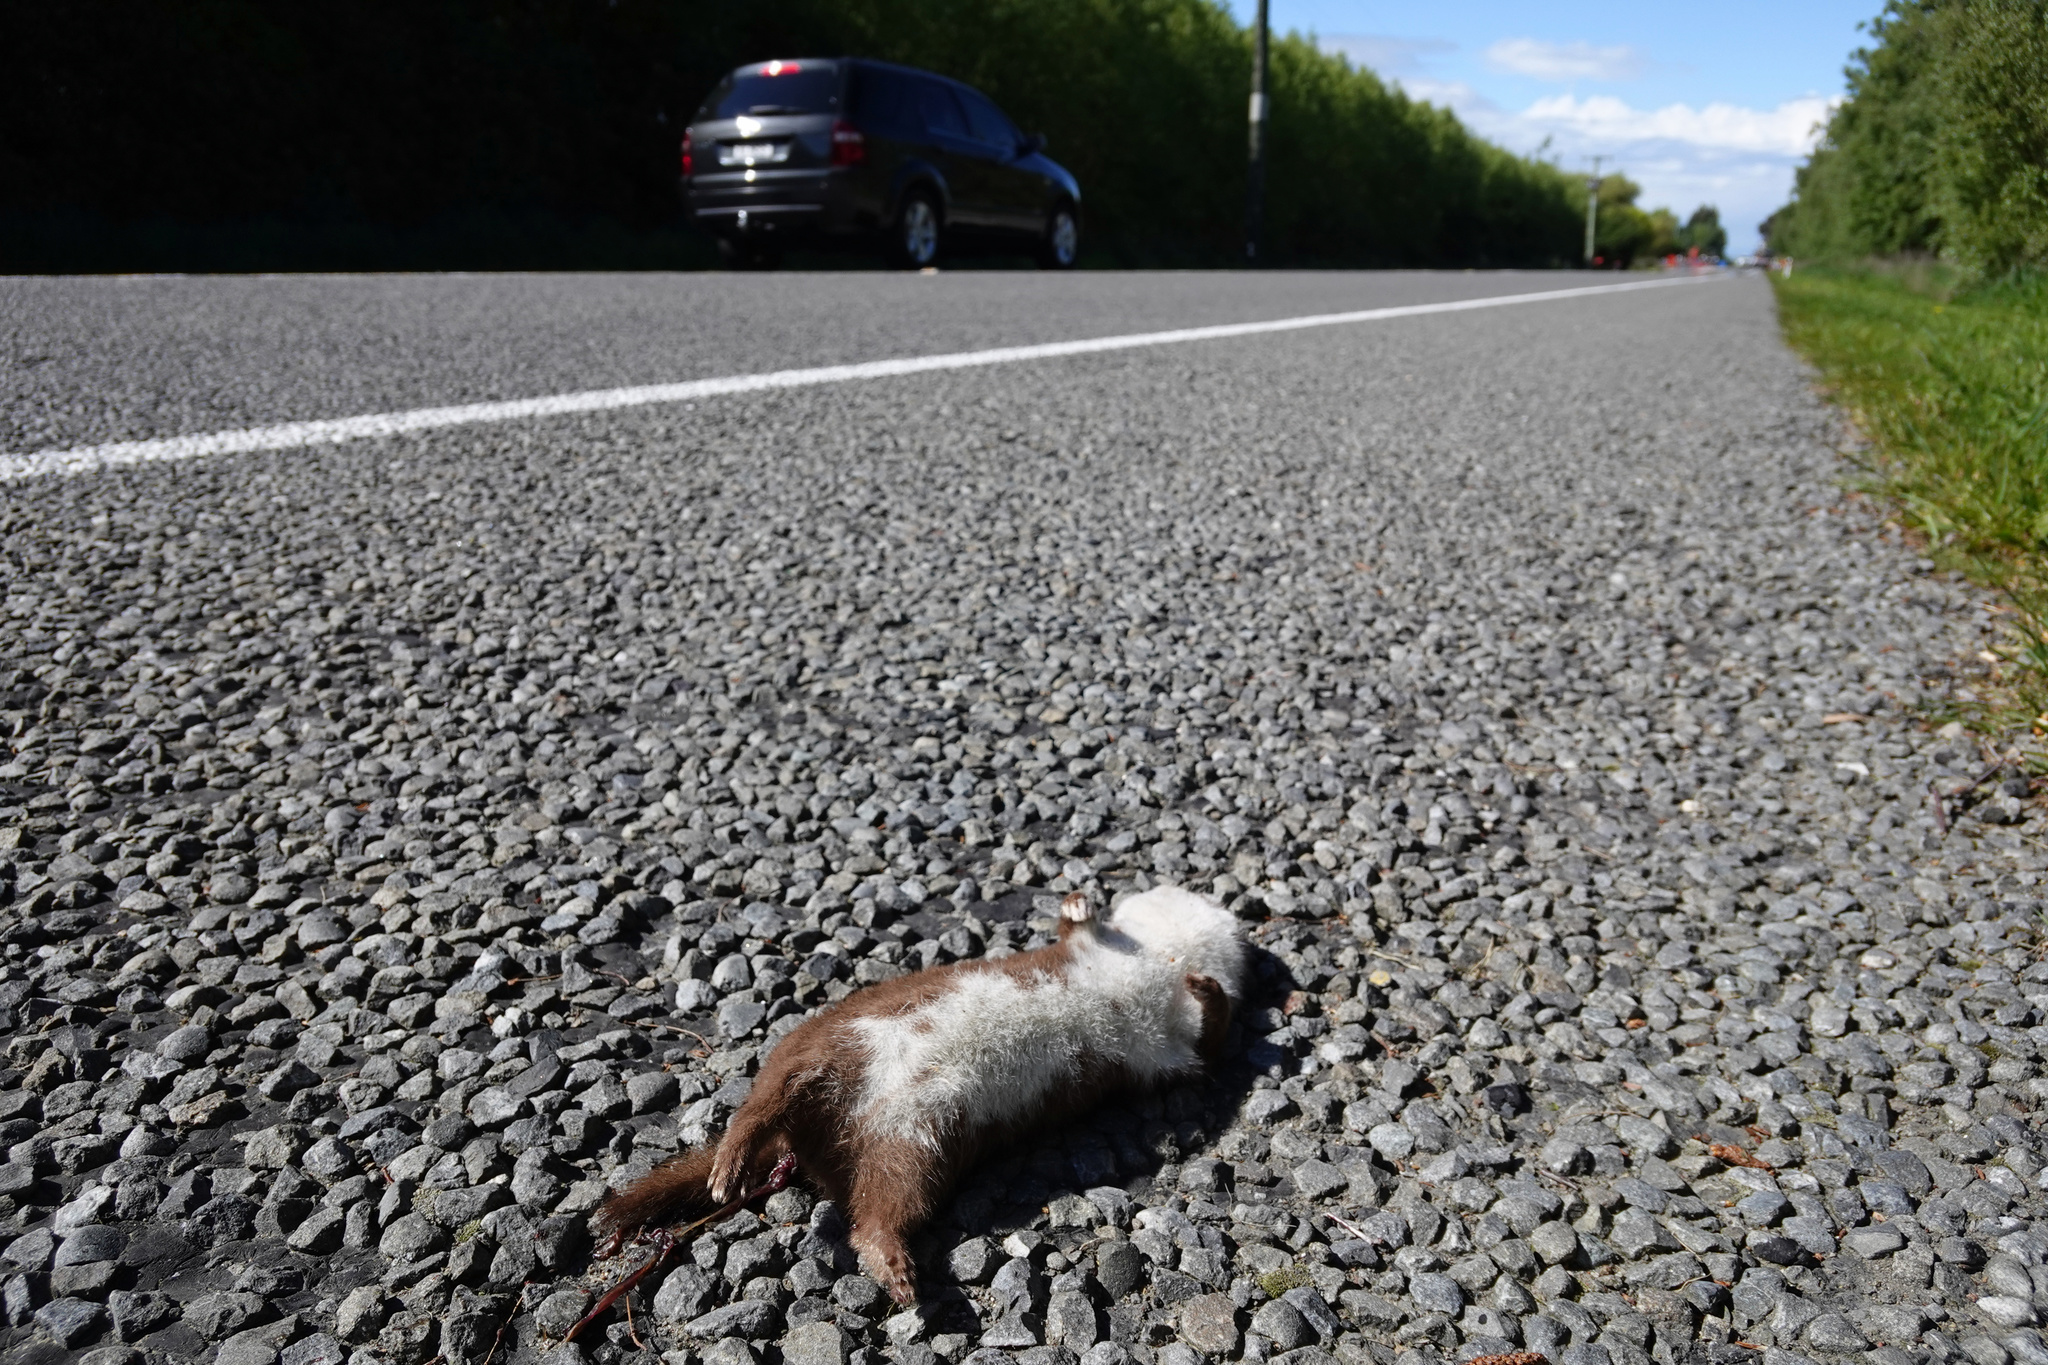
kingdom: Animalia
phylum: Chordata
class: Mammalia
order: Carnivora
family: Mustelidae
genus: Mustela
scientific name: Mustela nivalis
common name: Least weasel
